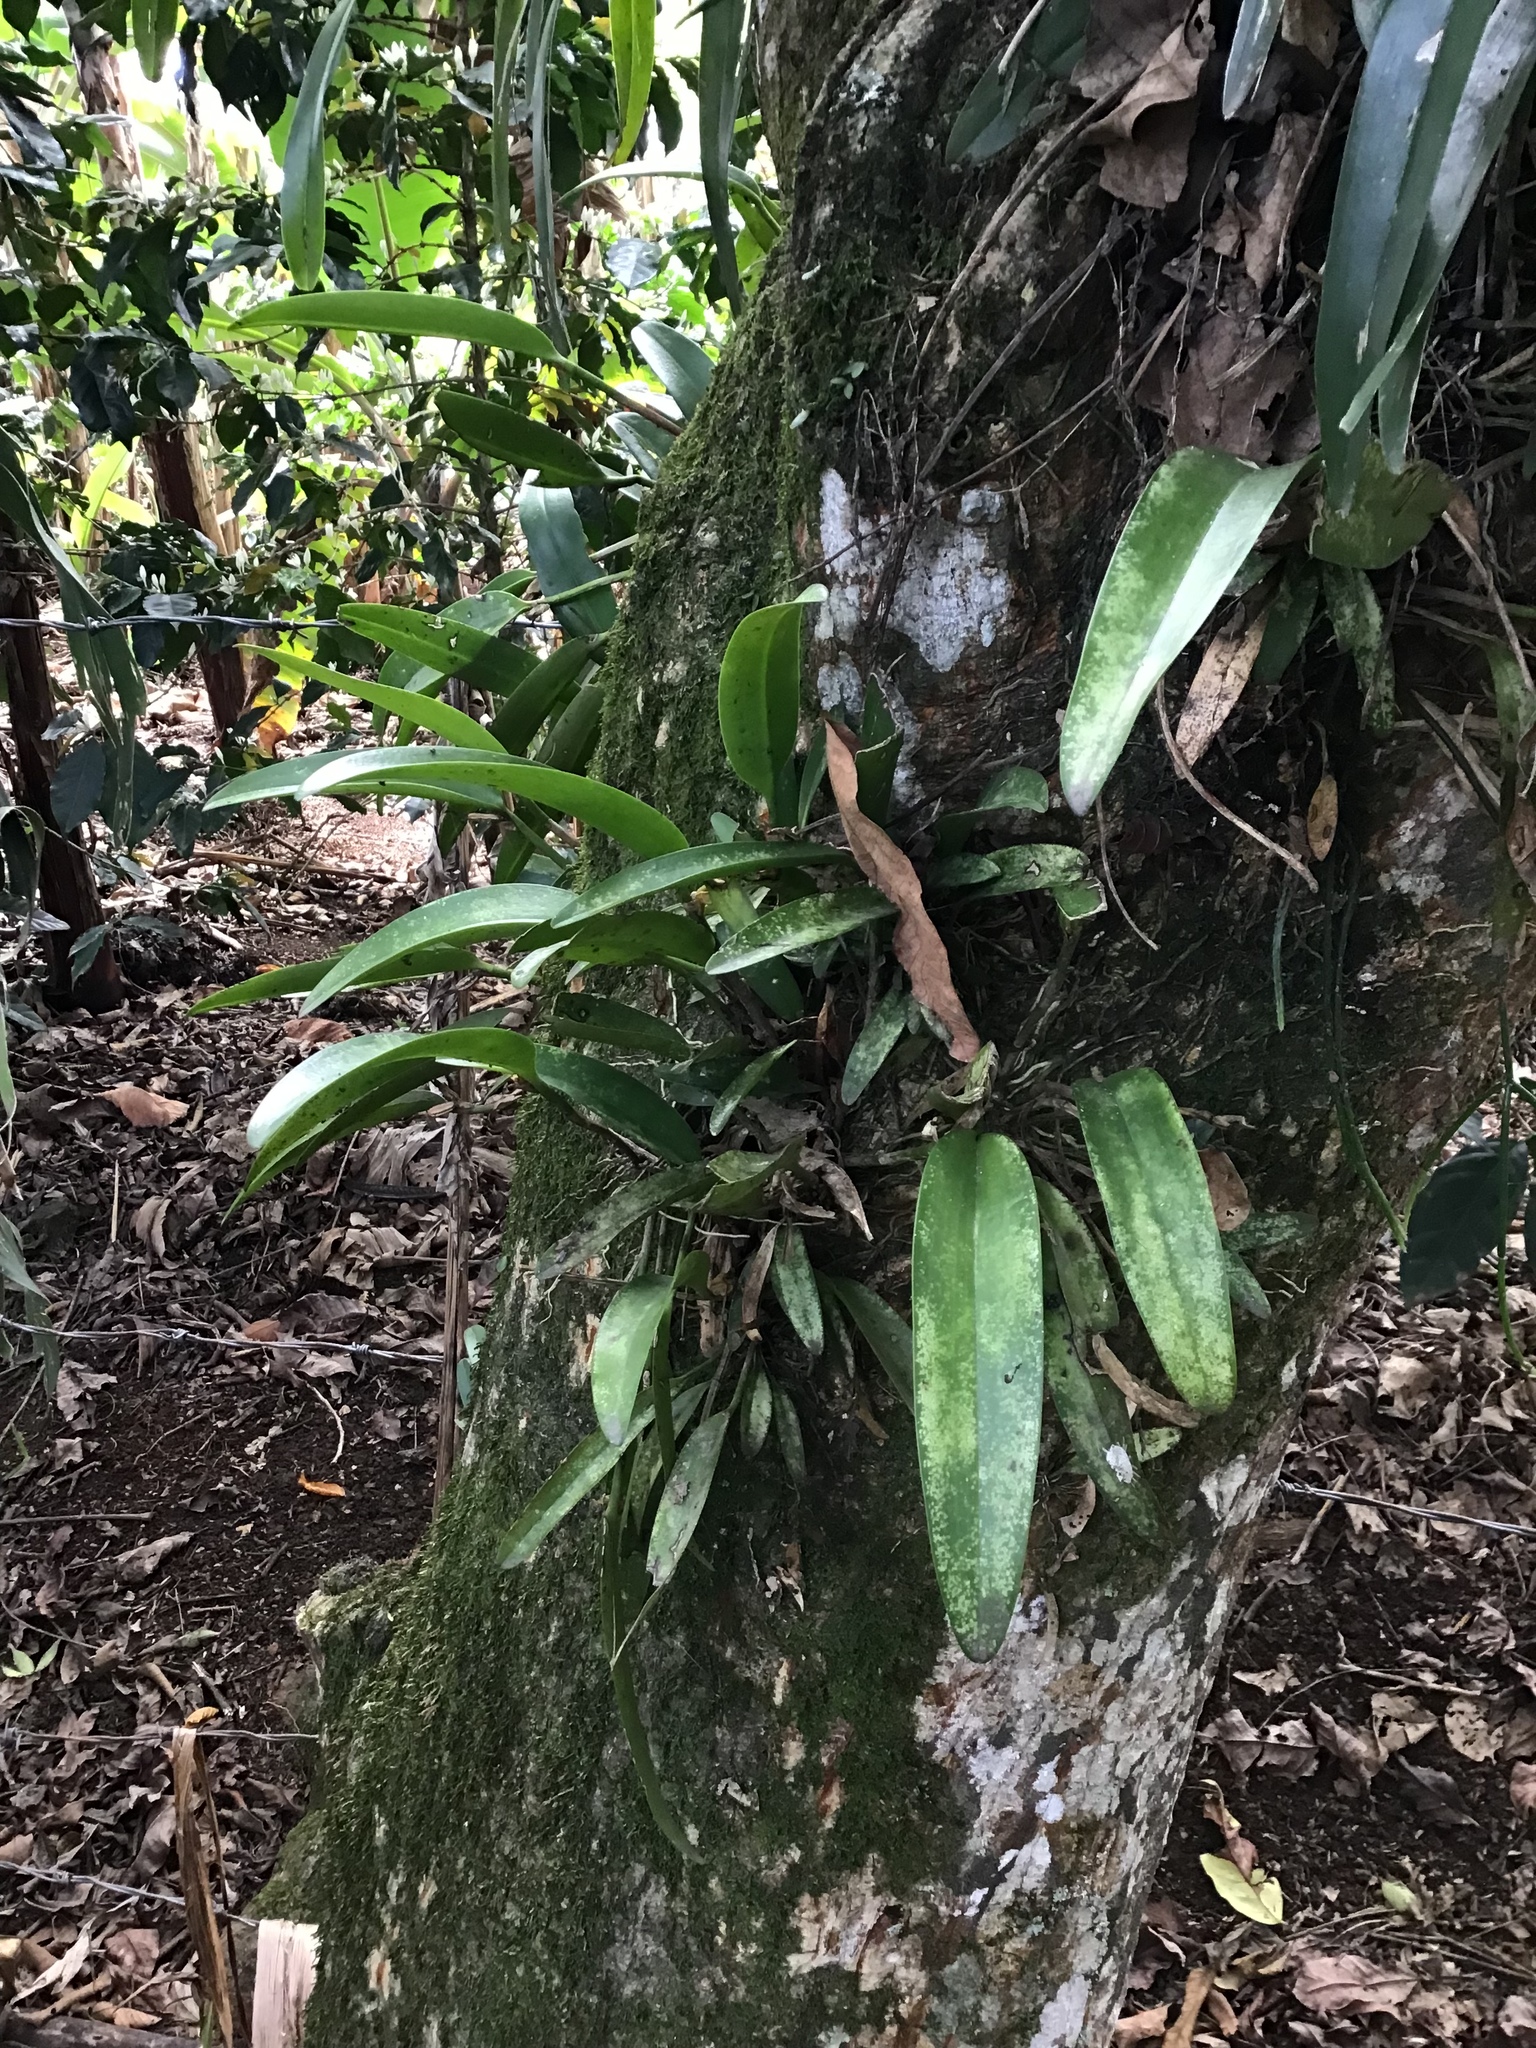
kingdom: Plantae
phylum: Tracheophyta
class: Liliopsida
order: Asparagales
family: Orchidaceae
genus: Restrepiella
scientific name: Restrepiella ophiocephala
